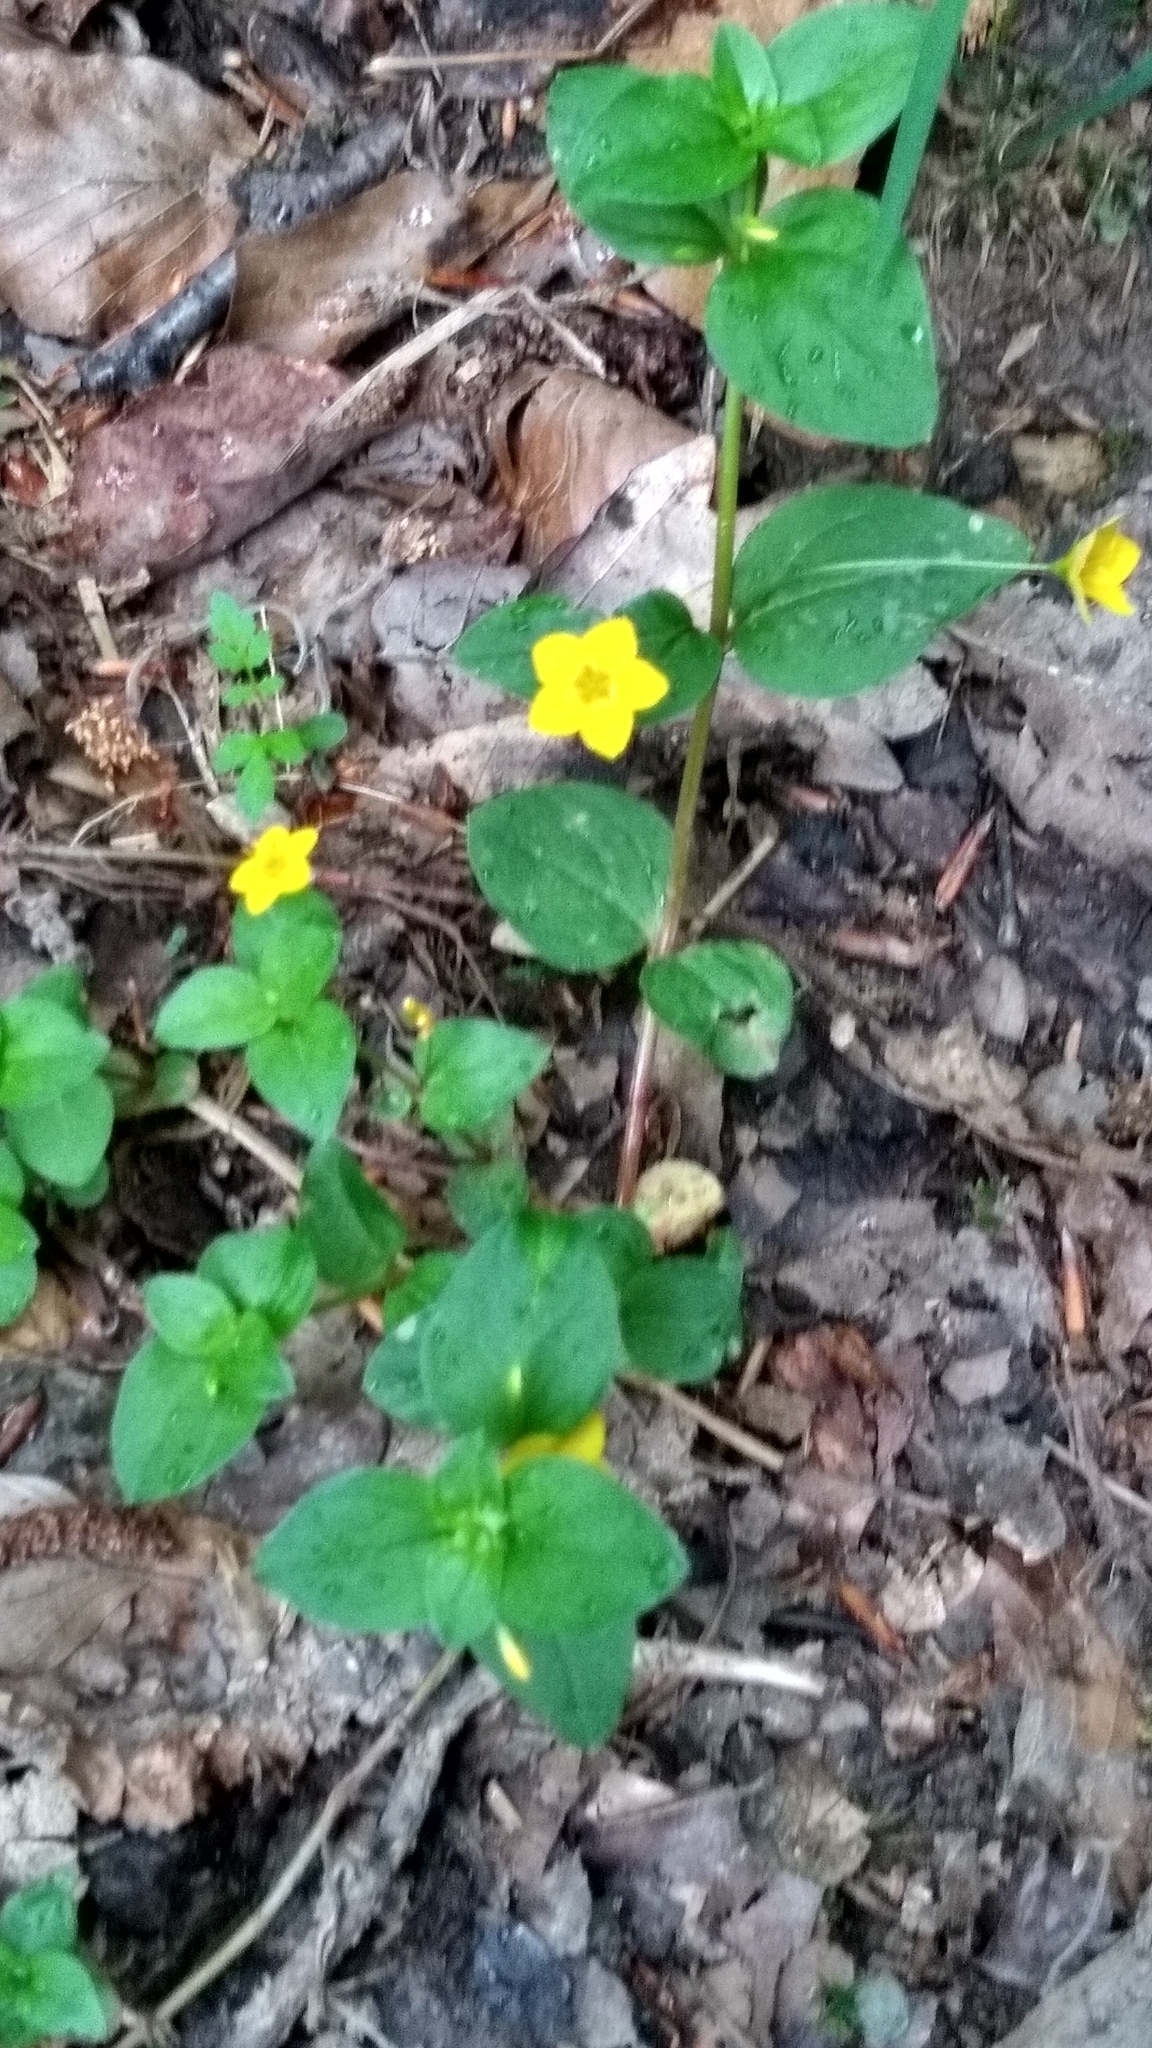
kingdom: Plantae
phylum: Tracheophyta
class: Magnoliopsida
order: Ericales
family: Primulaceae
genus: Lysimachia
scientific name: Lysimachia nemorum
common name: Yellow pimpernel
